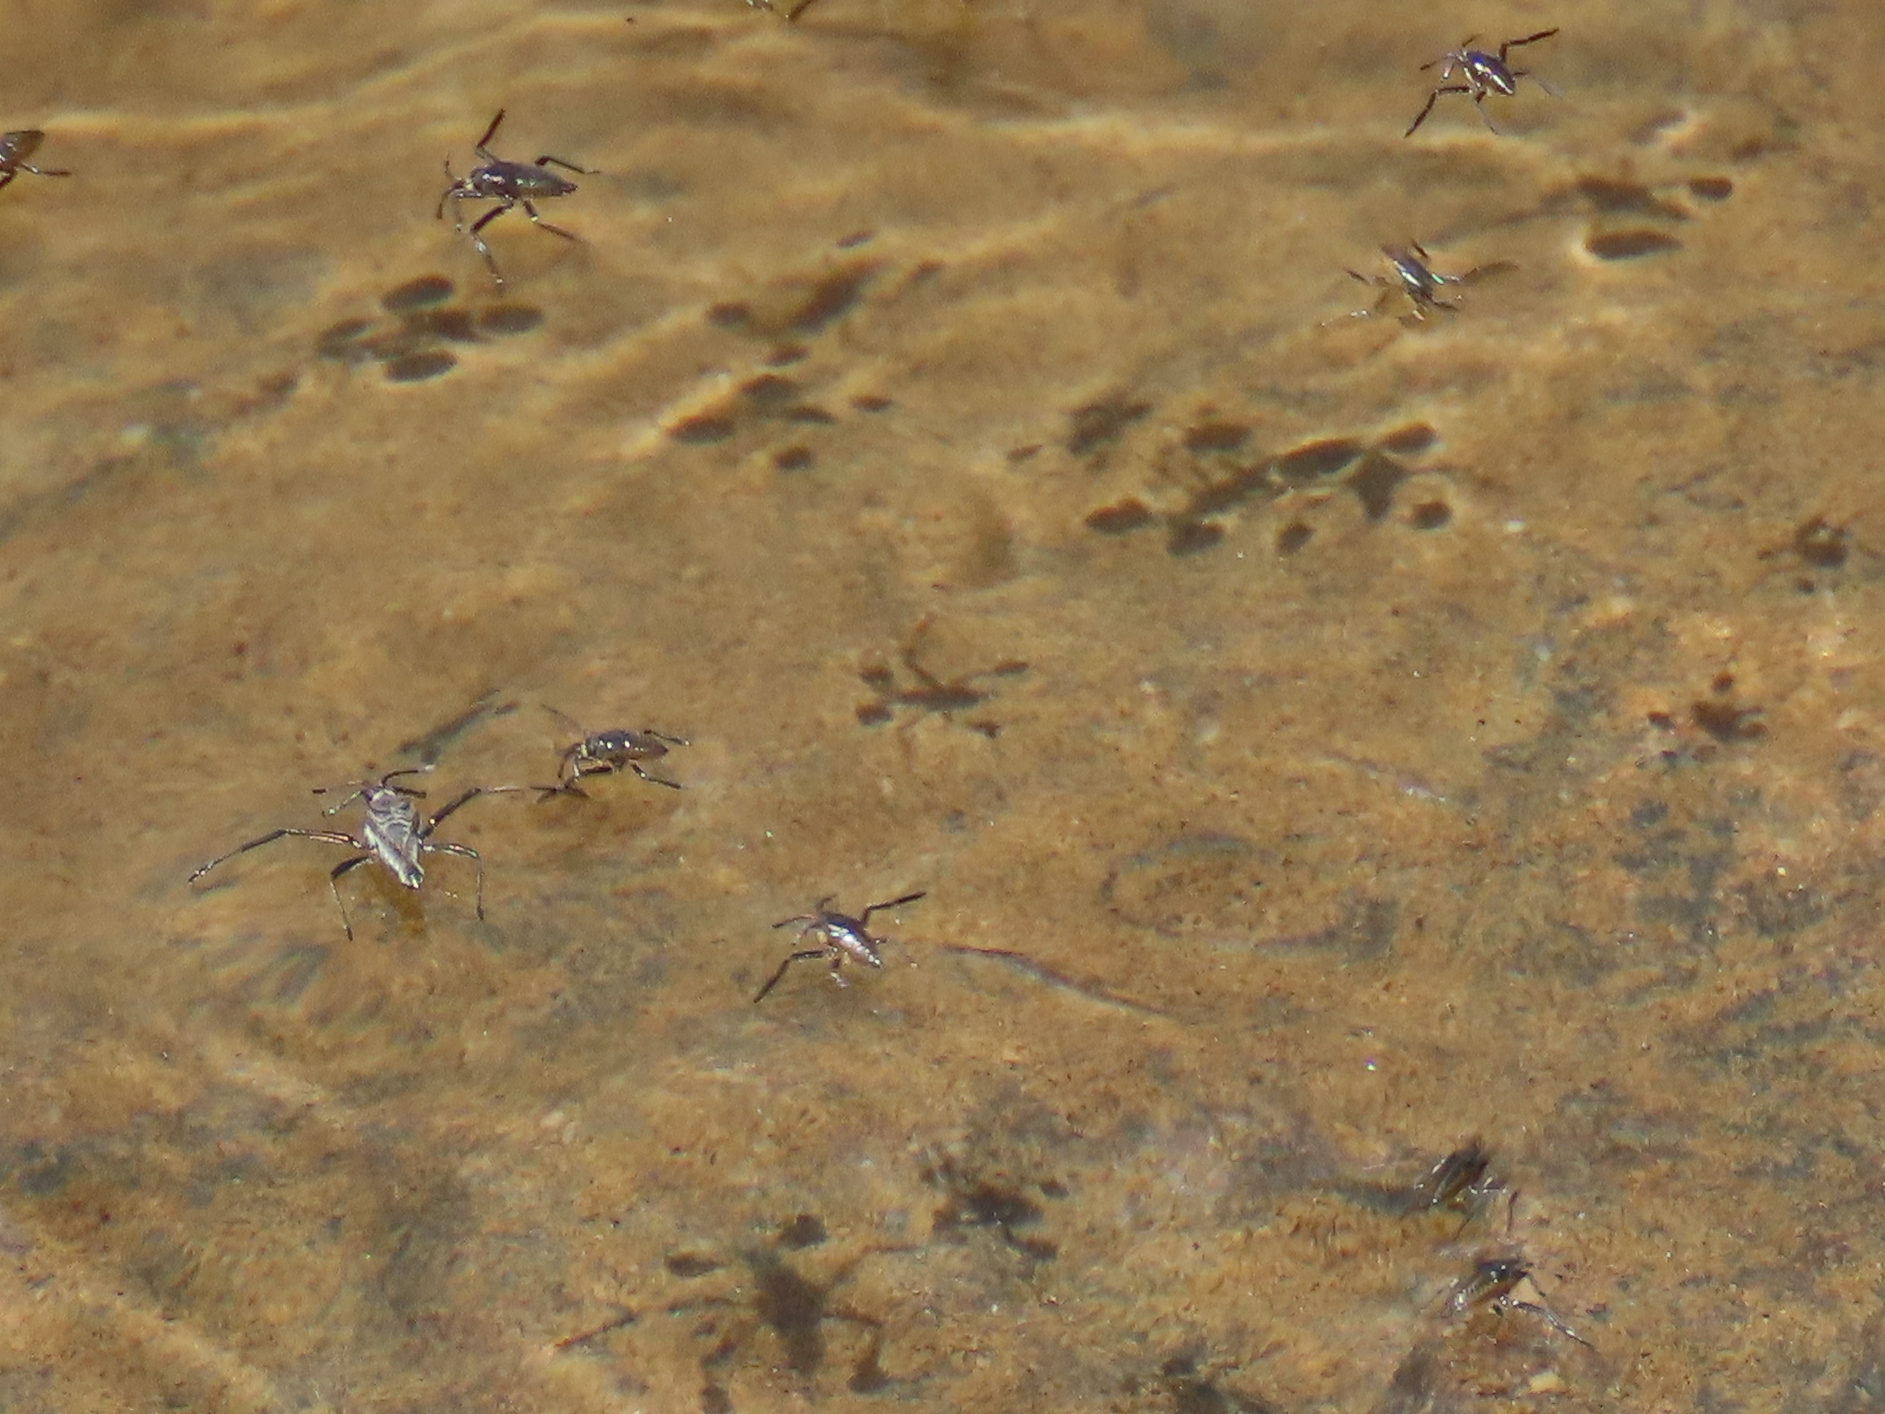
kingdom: Animalia
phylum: Arthropoda
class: Insecta
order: Hemiptera
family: Veliidae
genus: Rhagovelia
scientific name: Rhagovelia obesa
